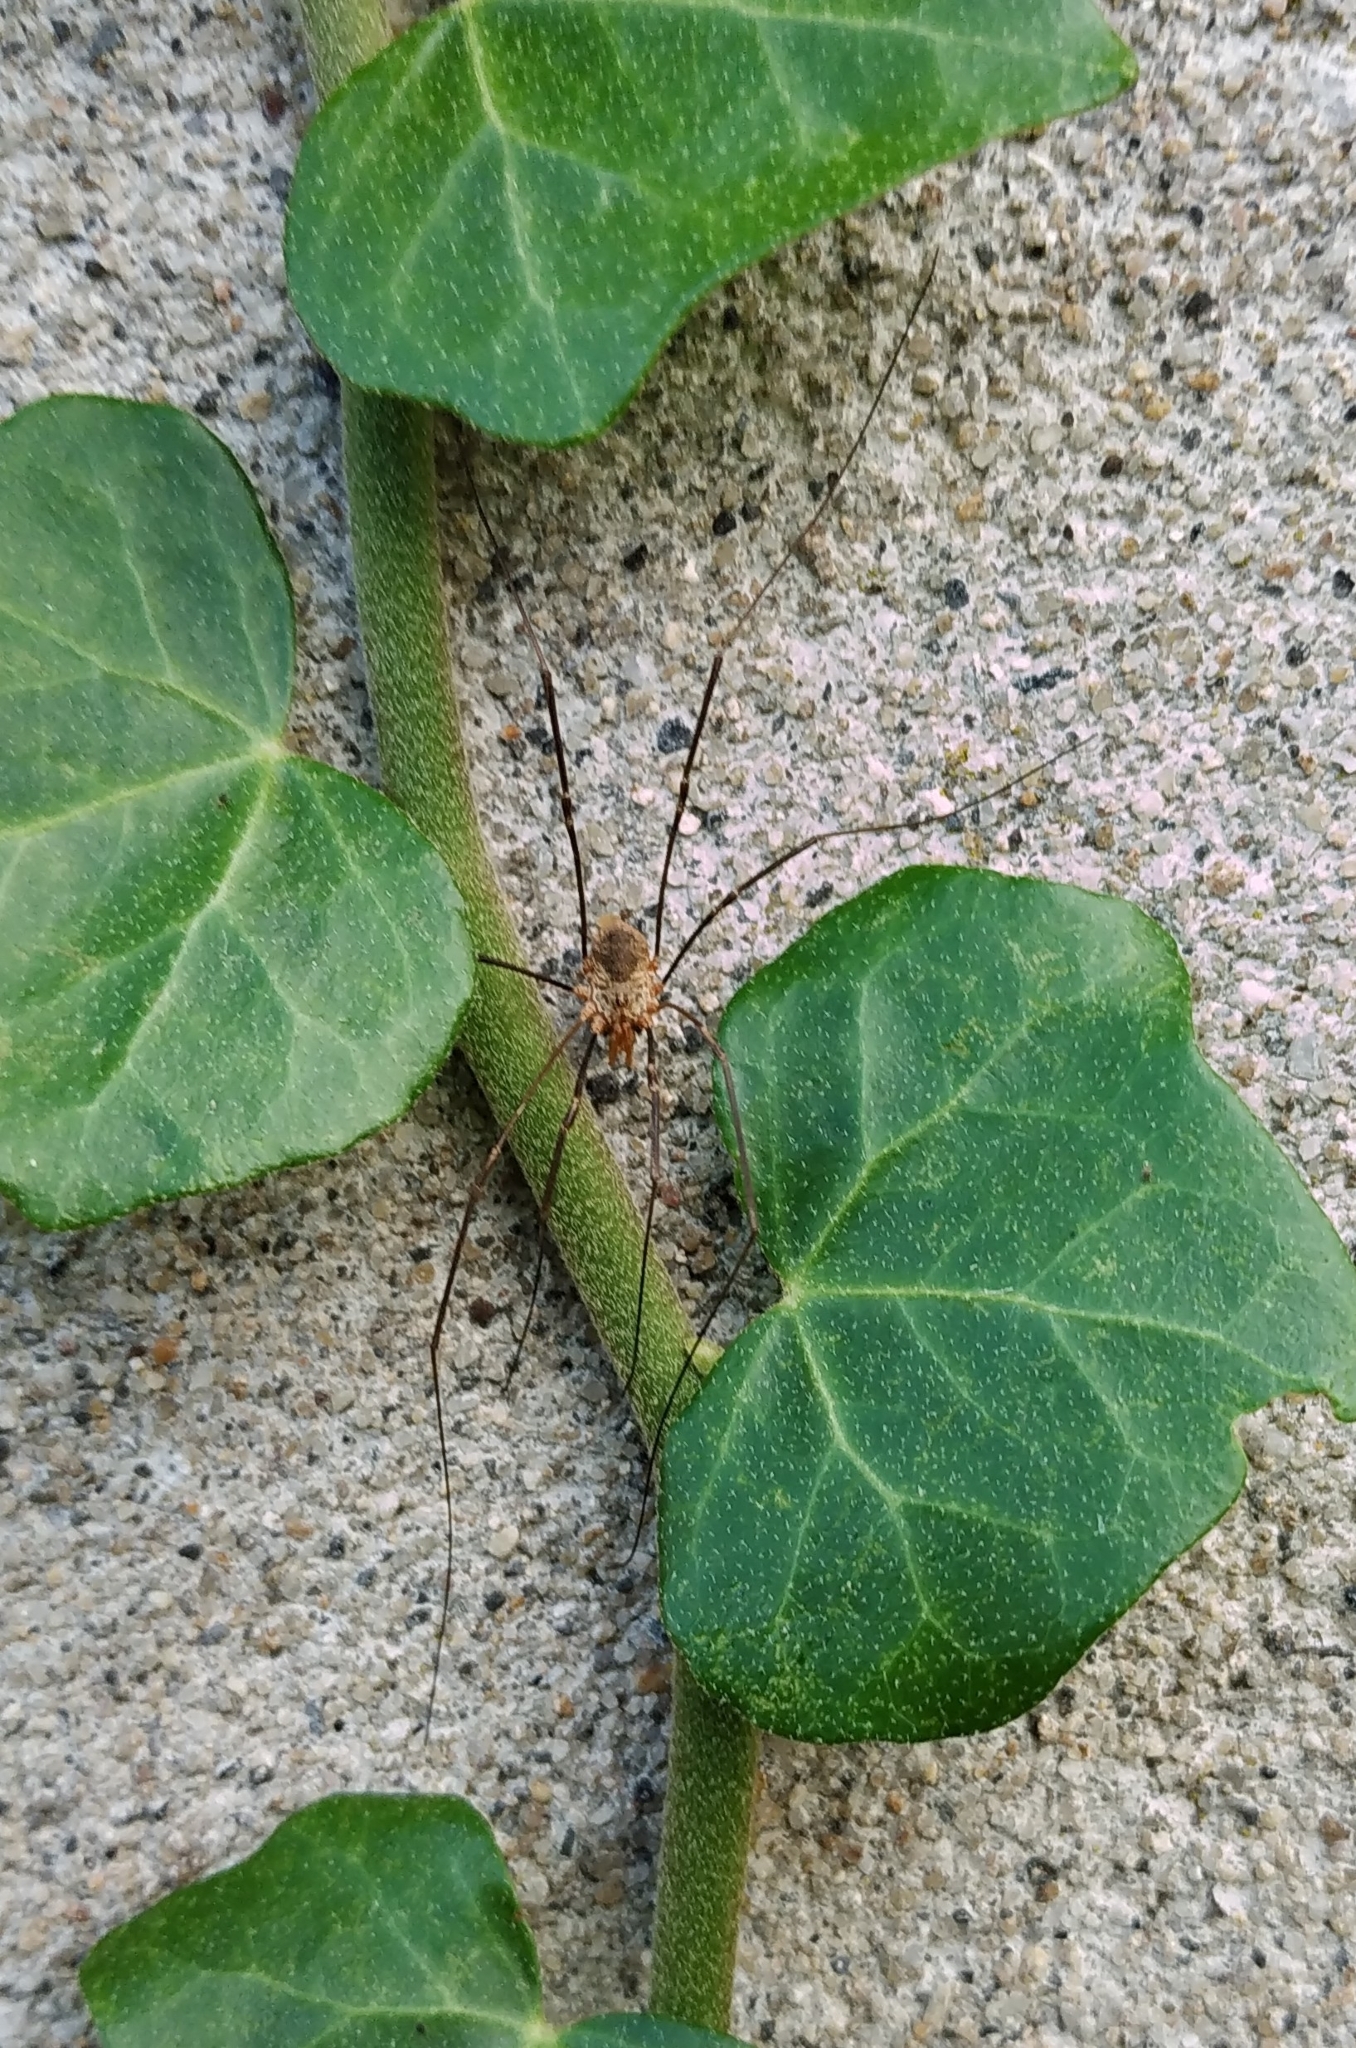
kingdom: Animalia
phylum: Arthropoda
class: Arachnida
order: Opiliones
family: Phalangiidae
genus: Phalangium
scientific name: Phalangium opilio
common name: Daddy longleg
